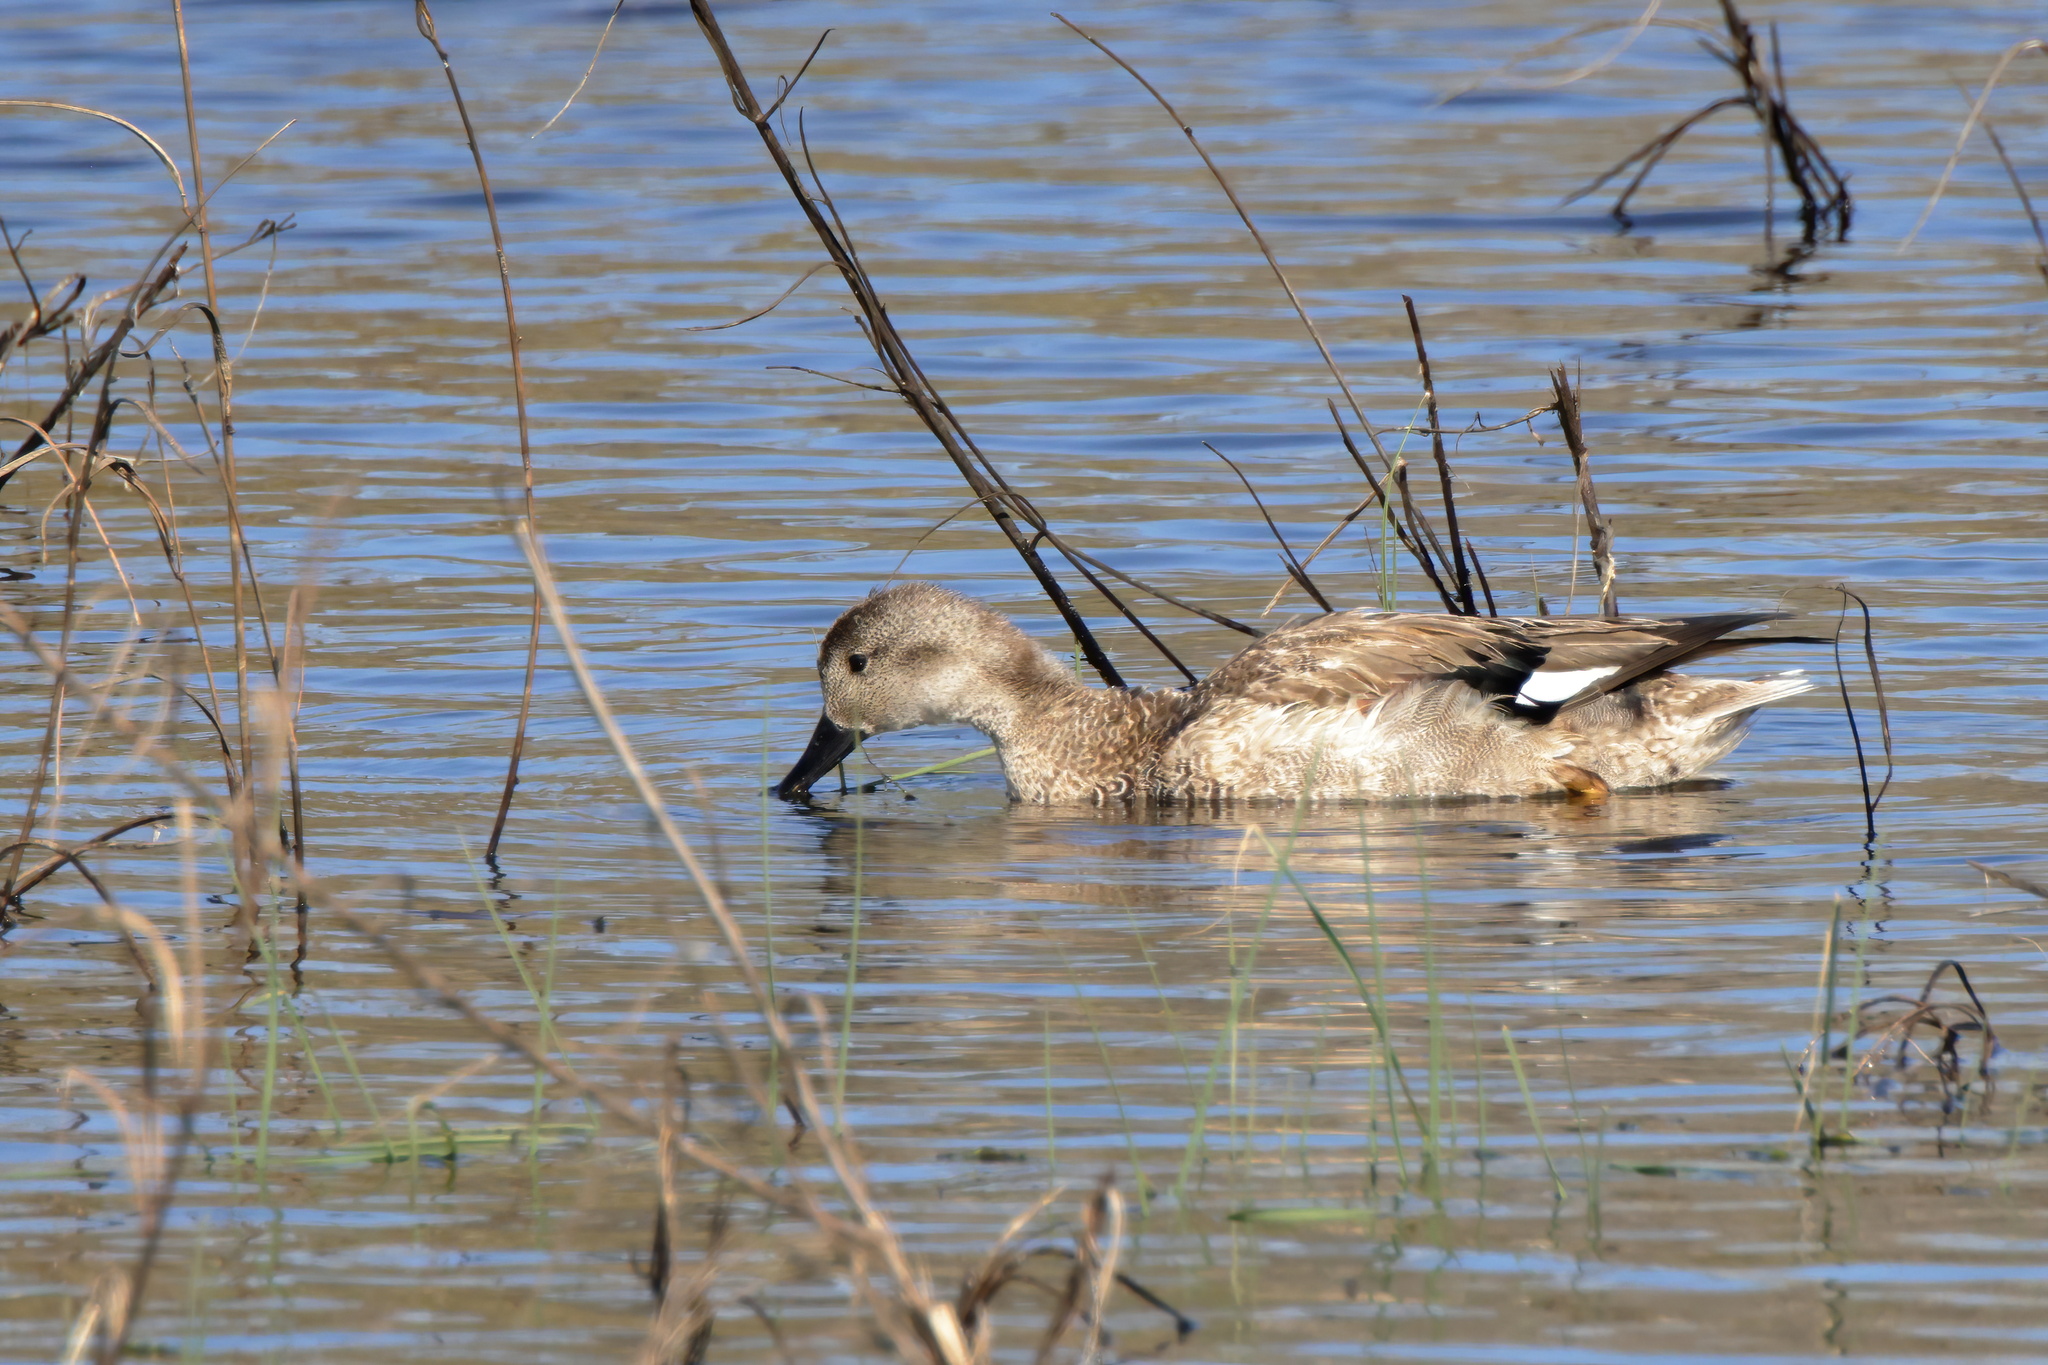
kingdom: Animalia
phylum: Chordata
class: Aves
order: Anseriformes
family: Anatidae
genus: Mareca
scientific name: Mareca strepera
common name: Gadwall
